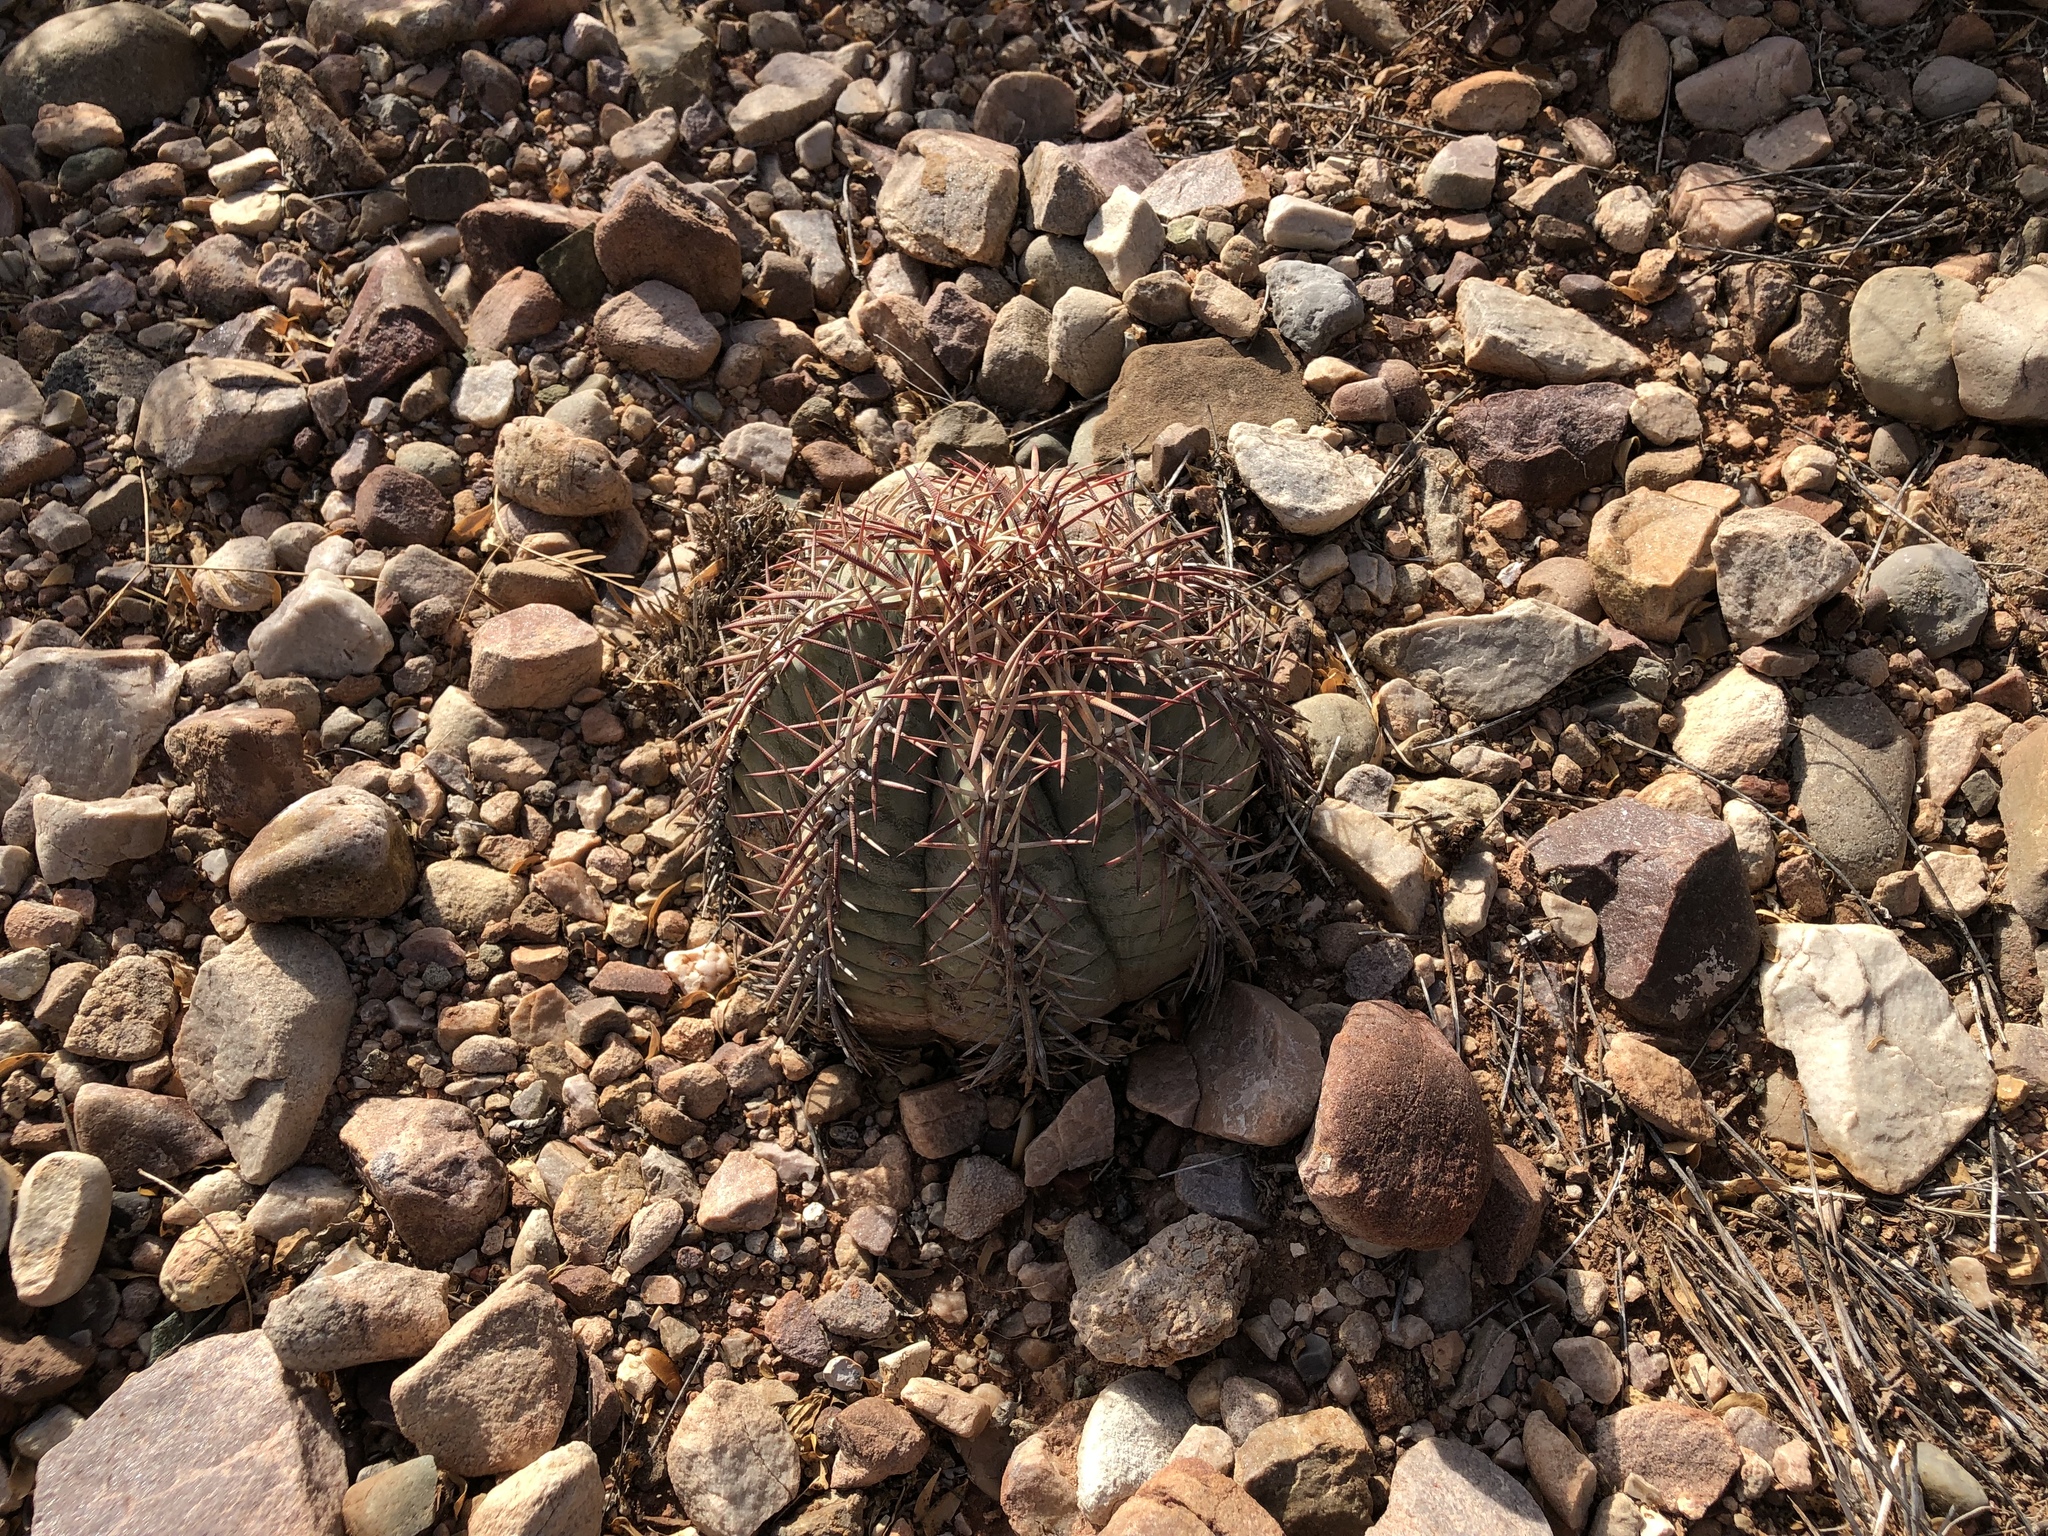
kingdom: Plantae
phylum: Tracheophyta
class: Magnoliopsida
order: Caryophyllales
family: Cactaceae
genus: Echinocactus
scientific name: Echinocactus horizonthalonius
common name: Devilshead
